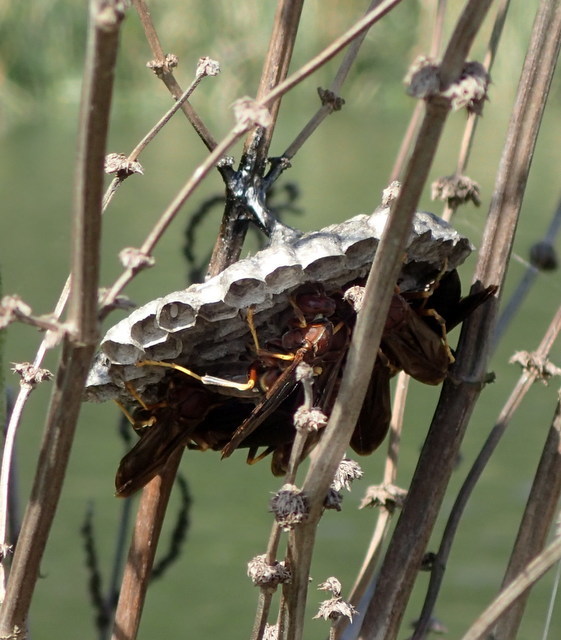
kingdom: Animalia
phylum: Arthropoda
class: Insecta
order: Hymenoptera
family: Eumenidae
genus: Polistes
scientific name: Polistes annularis
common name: Ringed paper wasp
